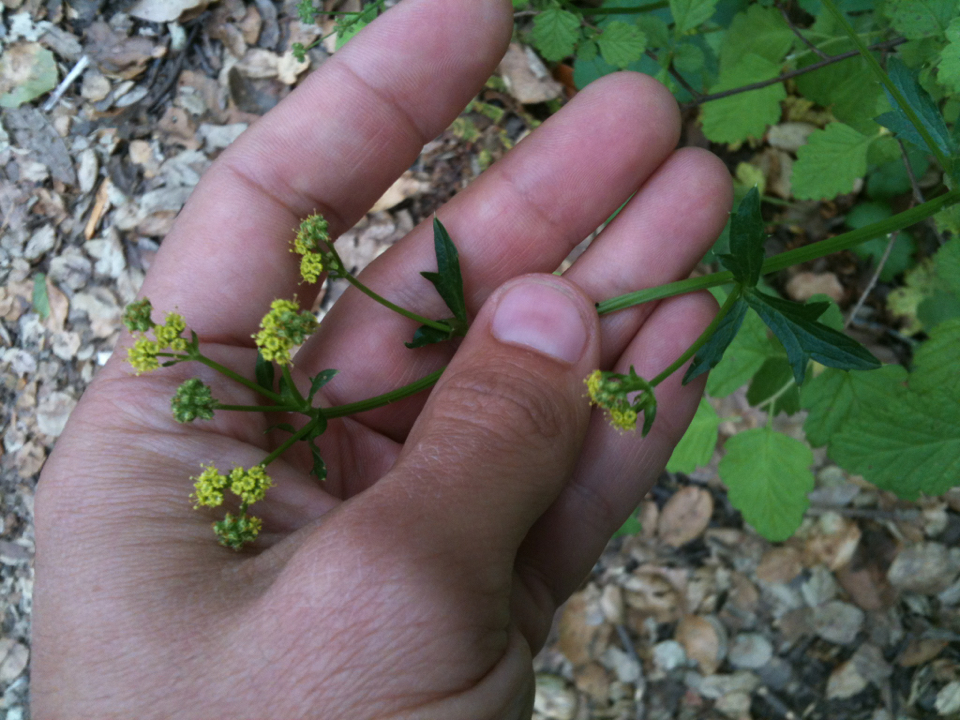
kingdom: Plantae
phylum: Tracheophyta
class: Magnoliopsida
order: Apiales
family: Apiaceae
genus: Sanicula
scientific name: Sanicula crassicaulis
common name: Western snakeroot
